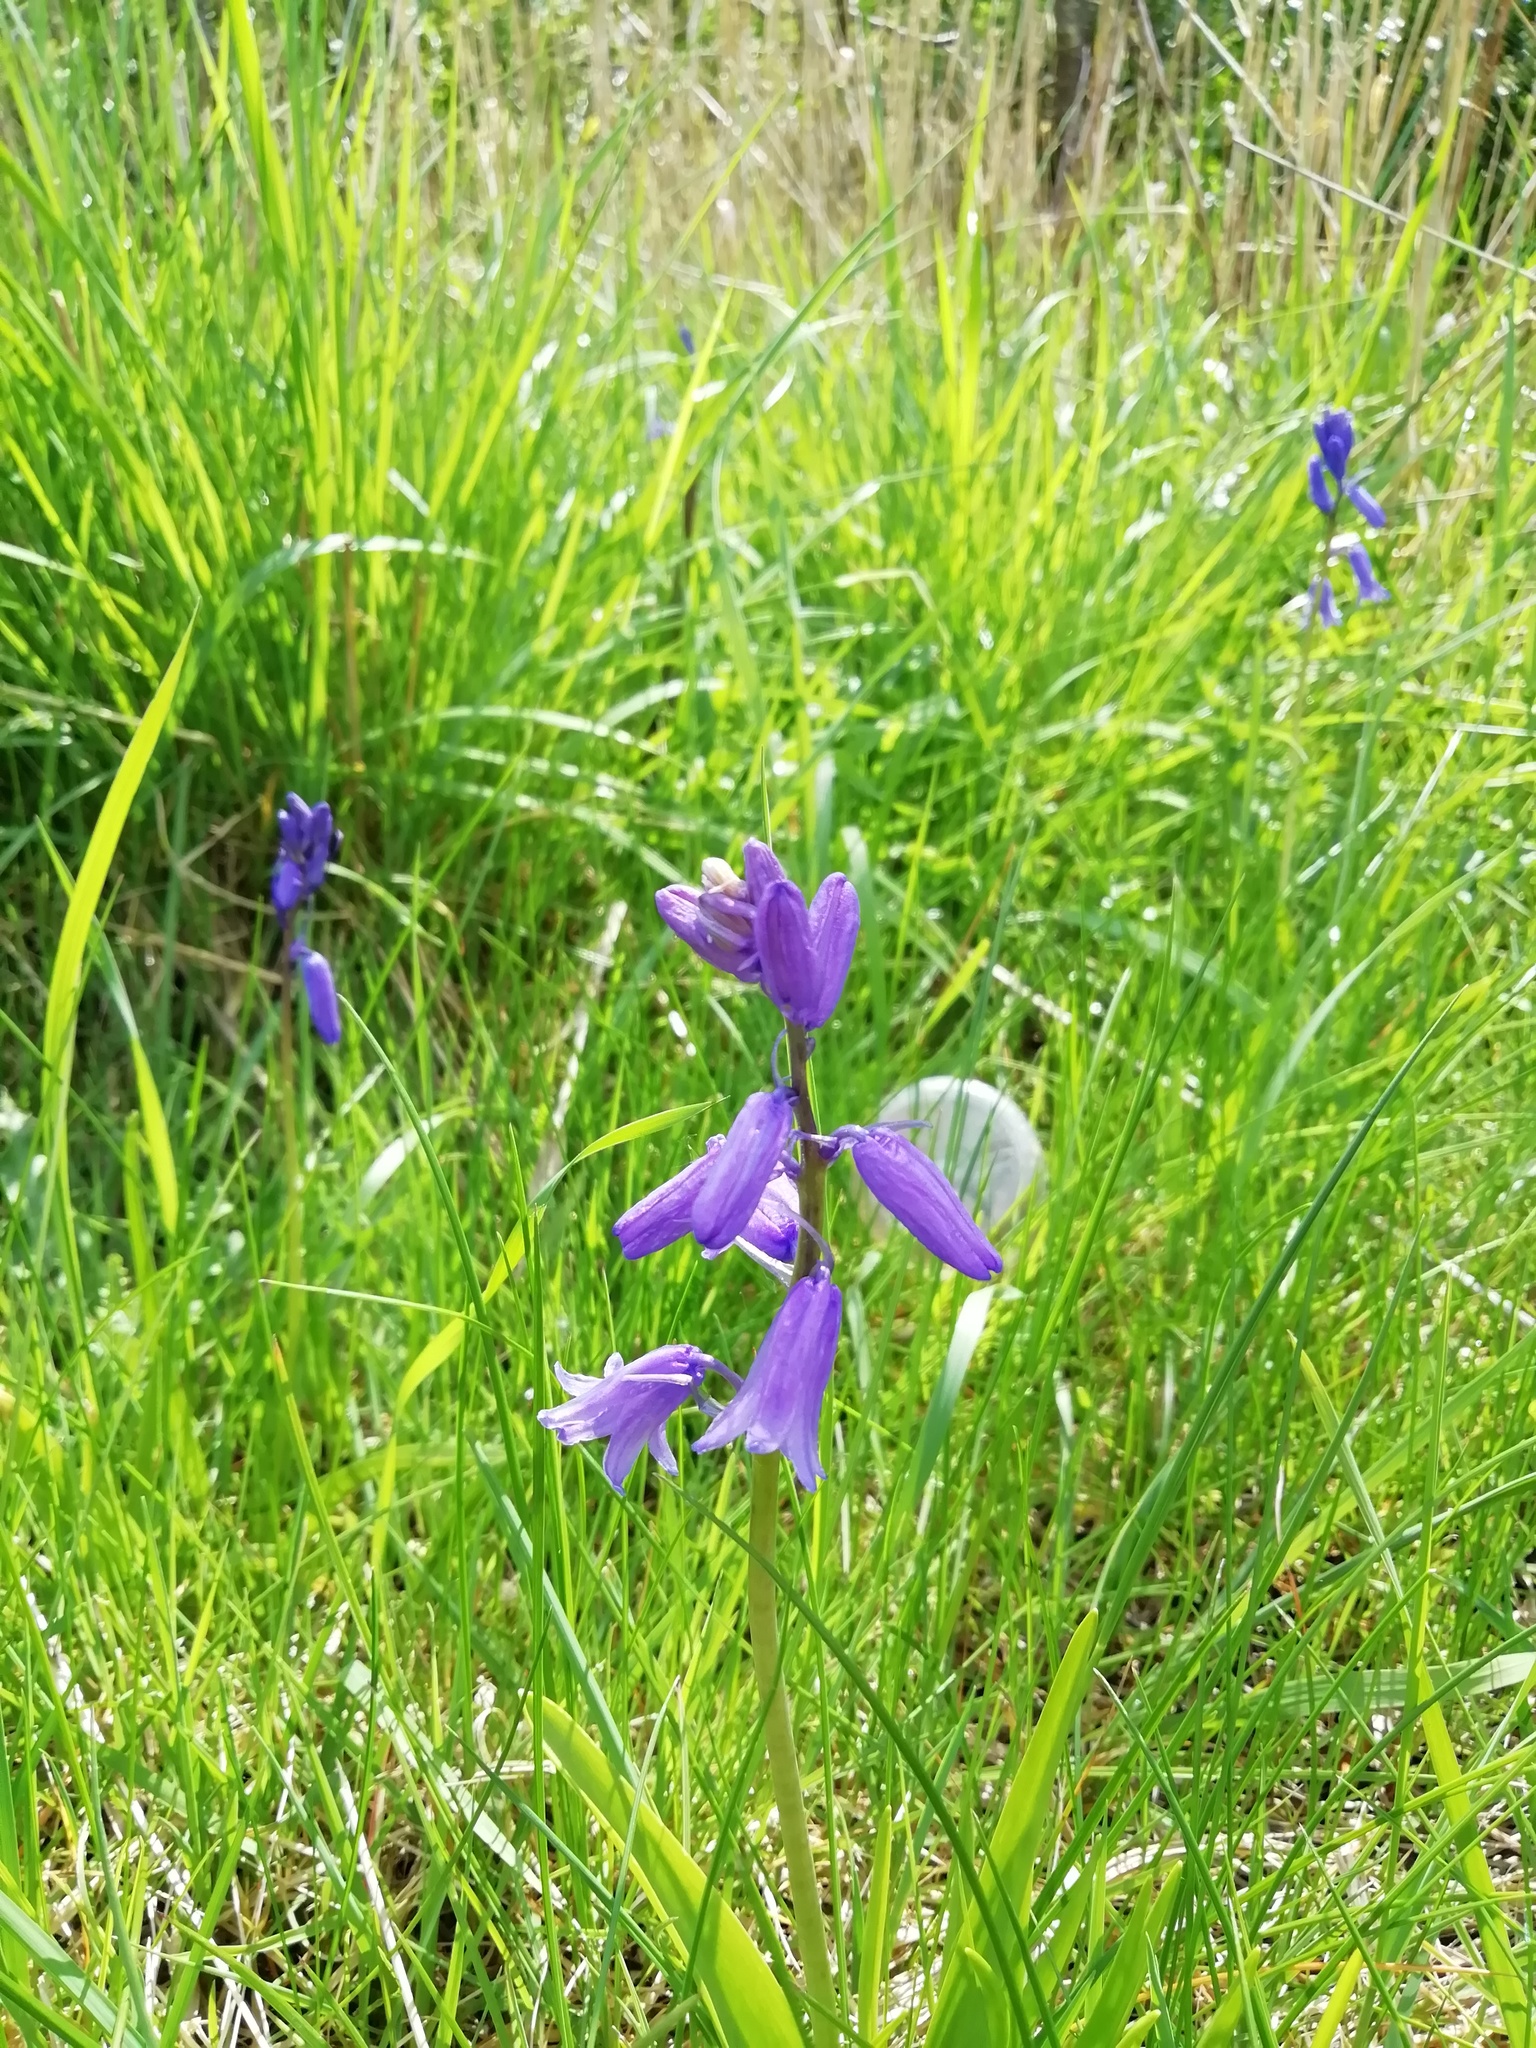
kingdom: Plantae
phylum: Tracheophyta
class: Liliopsida
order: Asparagales
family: Asparagaceae
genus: Hyacinthoides
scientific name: Hyacinthoides massartiana
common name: Hyacinthoides
